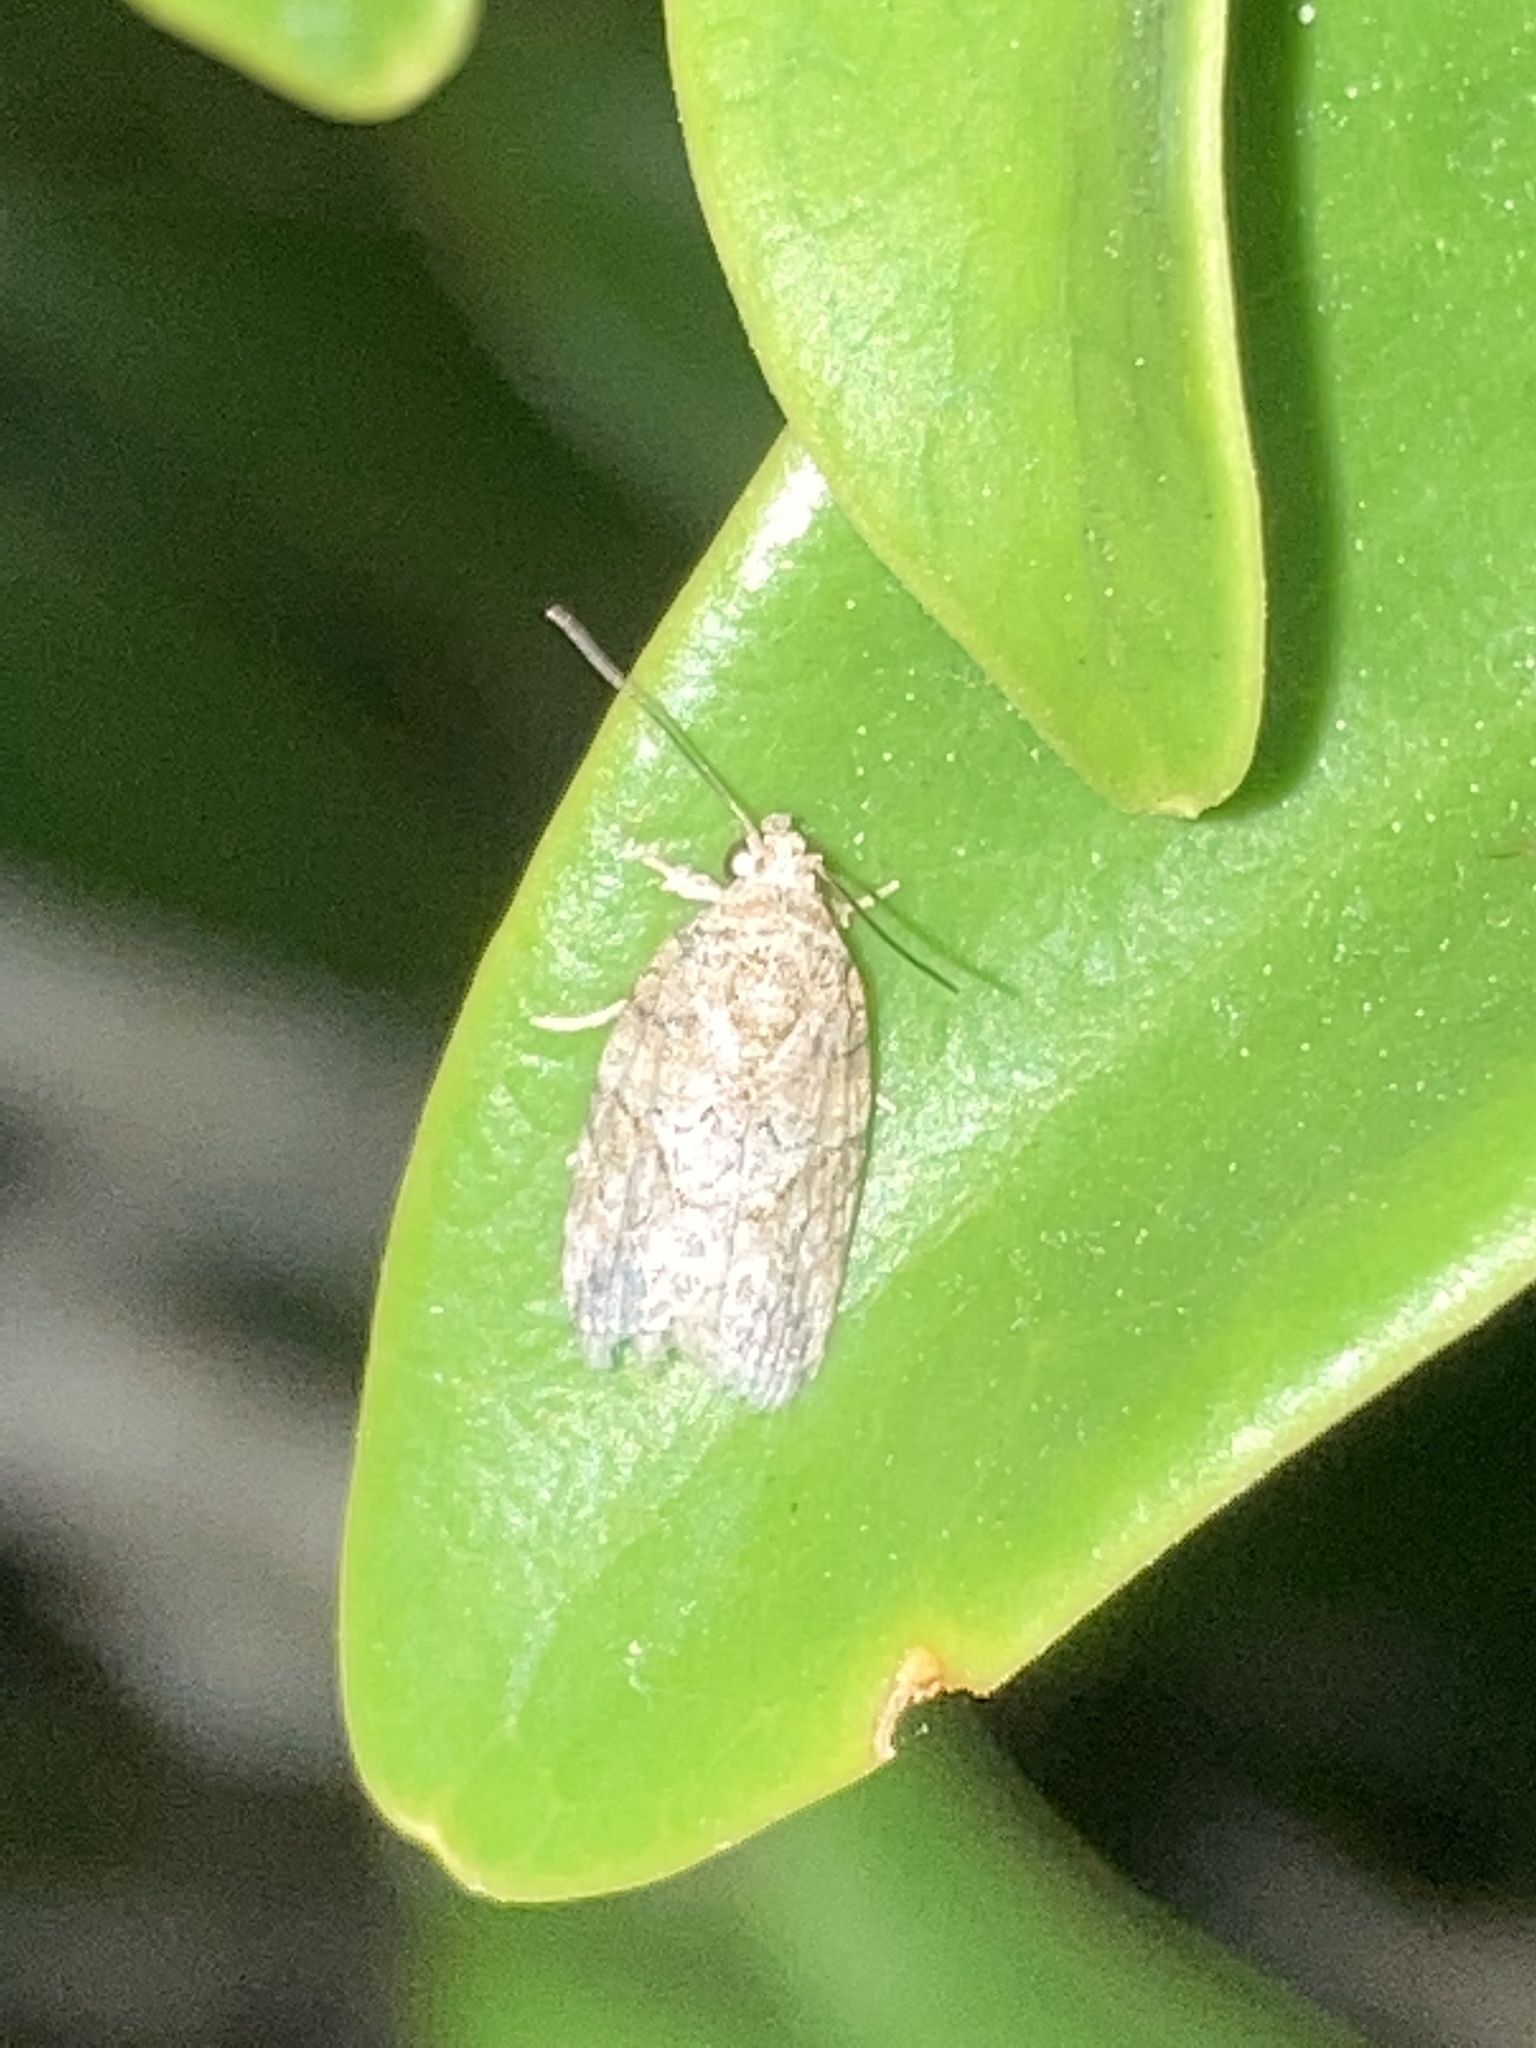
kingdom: Animalia
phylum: Arthropoda
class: Insecta
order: Lepidoptera
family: Nolidae
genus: Garella
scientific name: Garella nilotica
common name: Black-olive caterpillar moth
